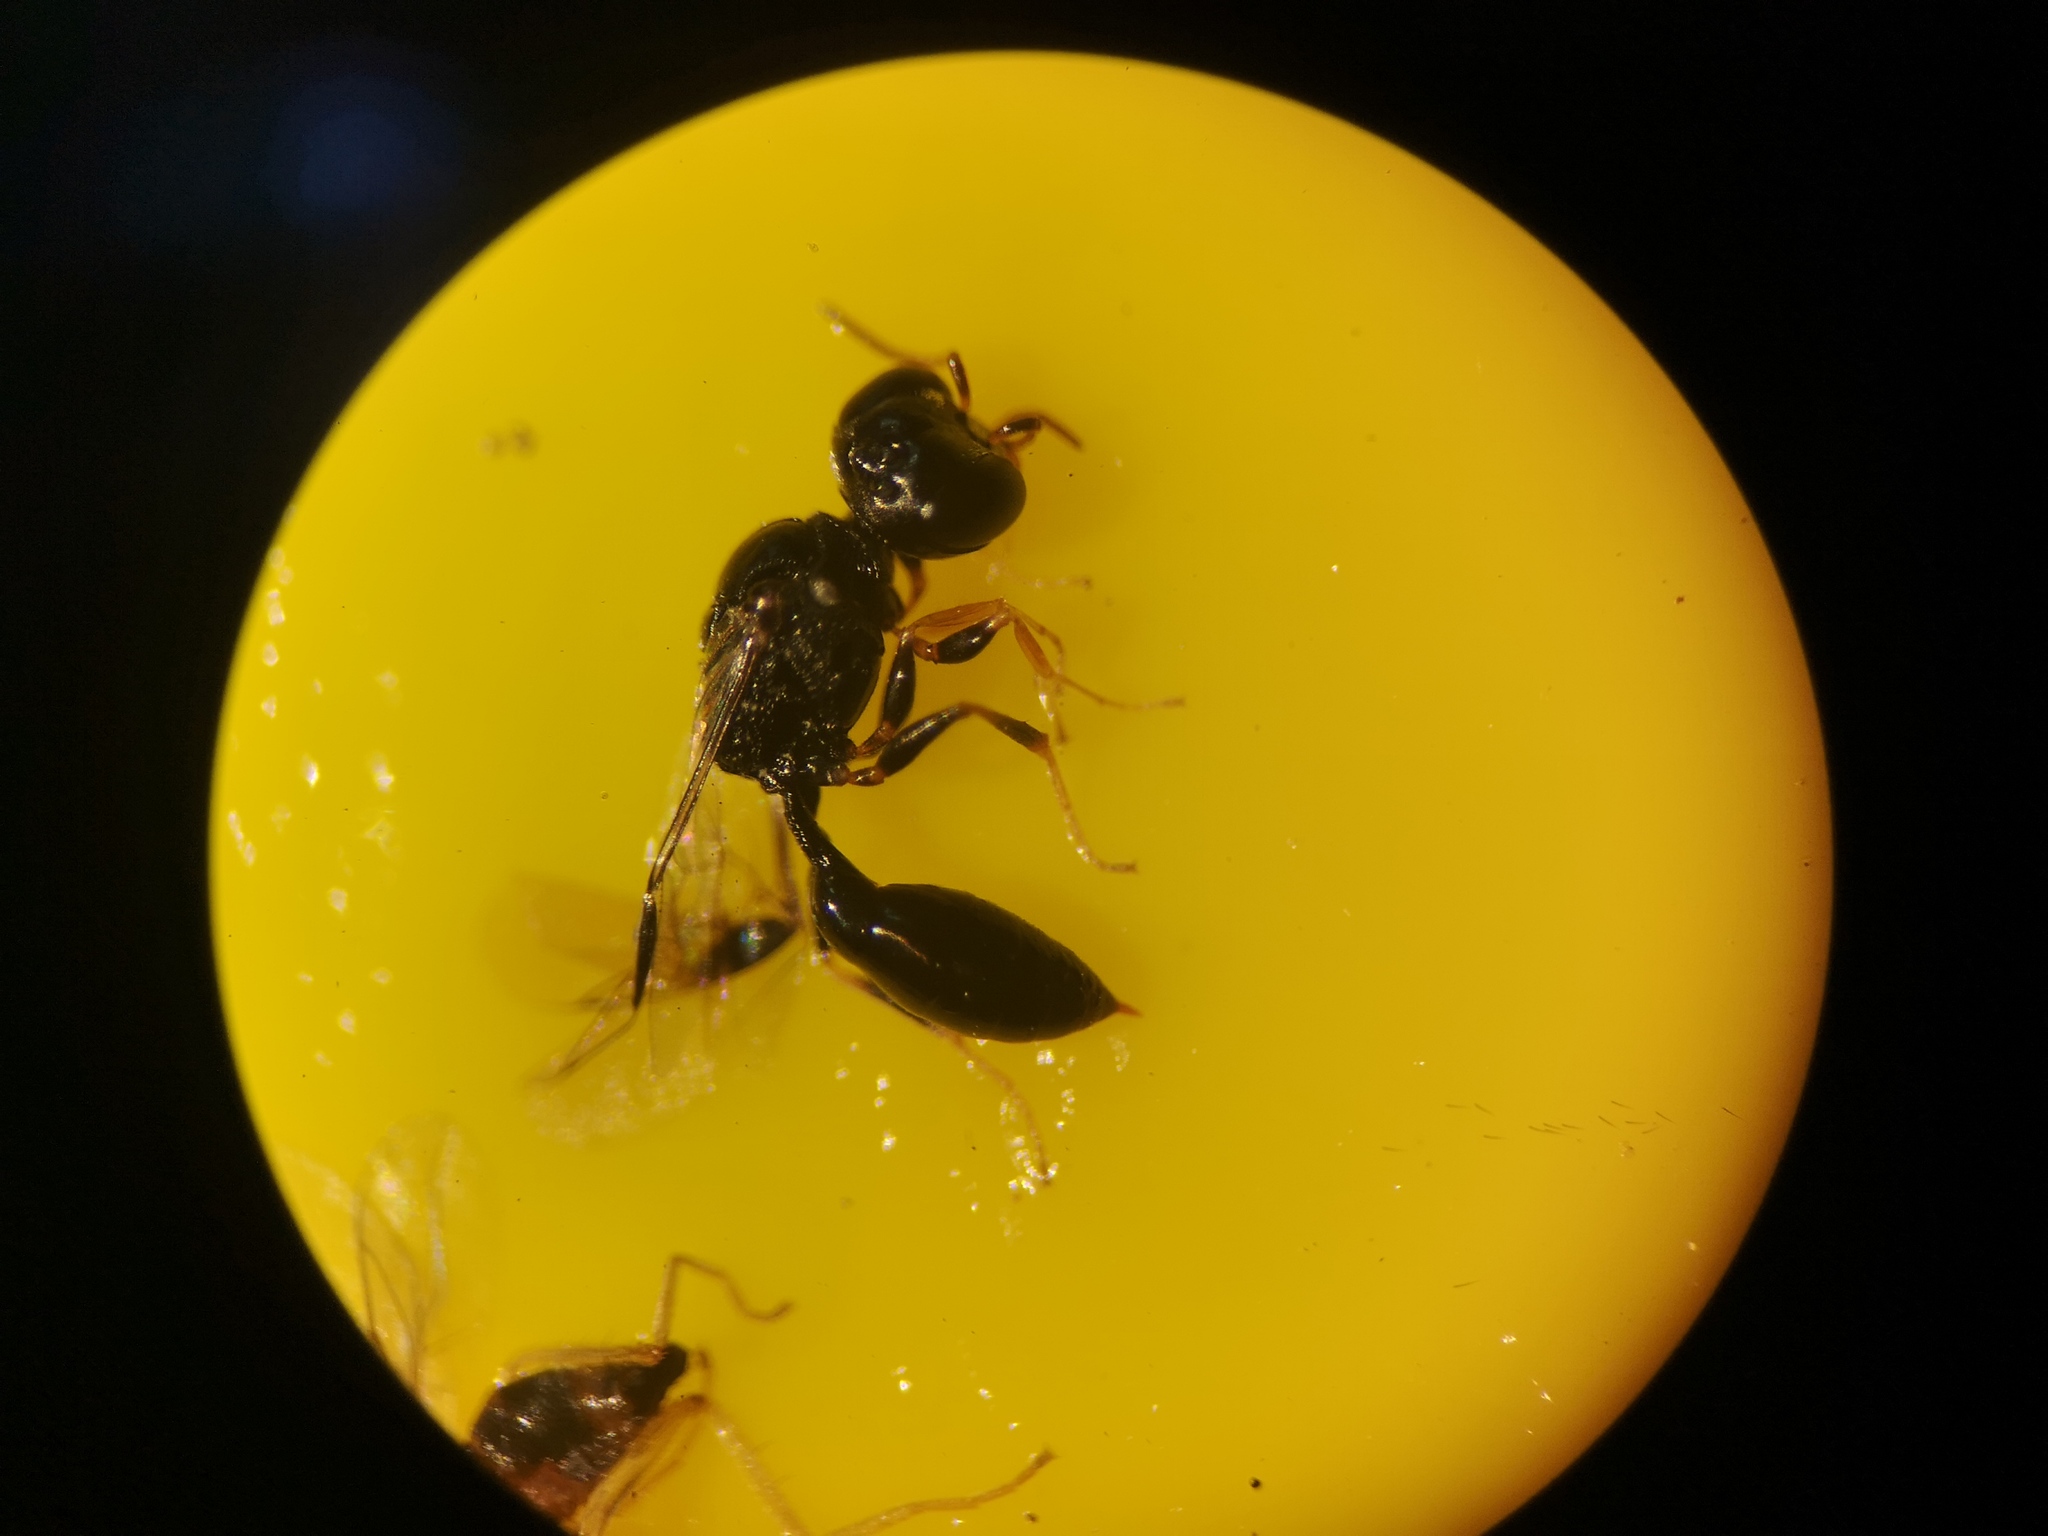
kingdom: Animalia
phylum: Arthropoda
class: Insecta
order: Hymenoptera
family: Crabronidae
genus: Stigmus
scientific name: Stigmus solskyi
